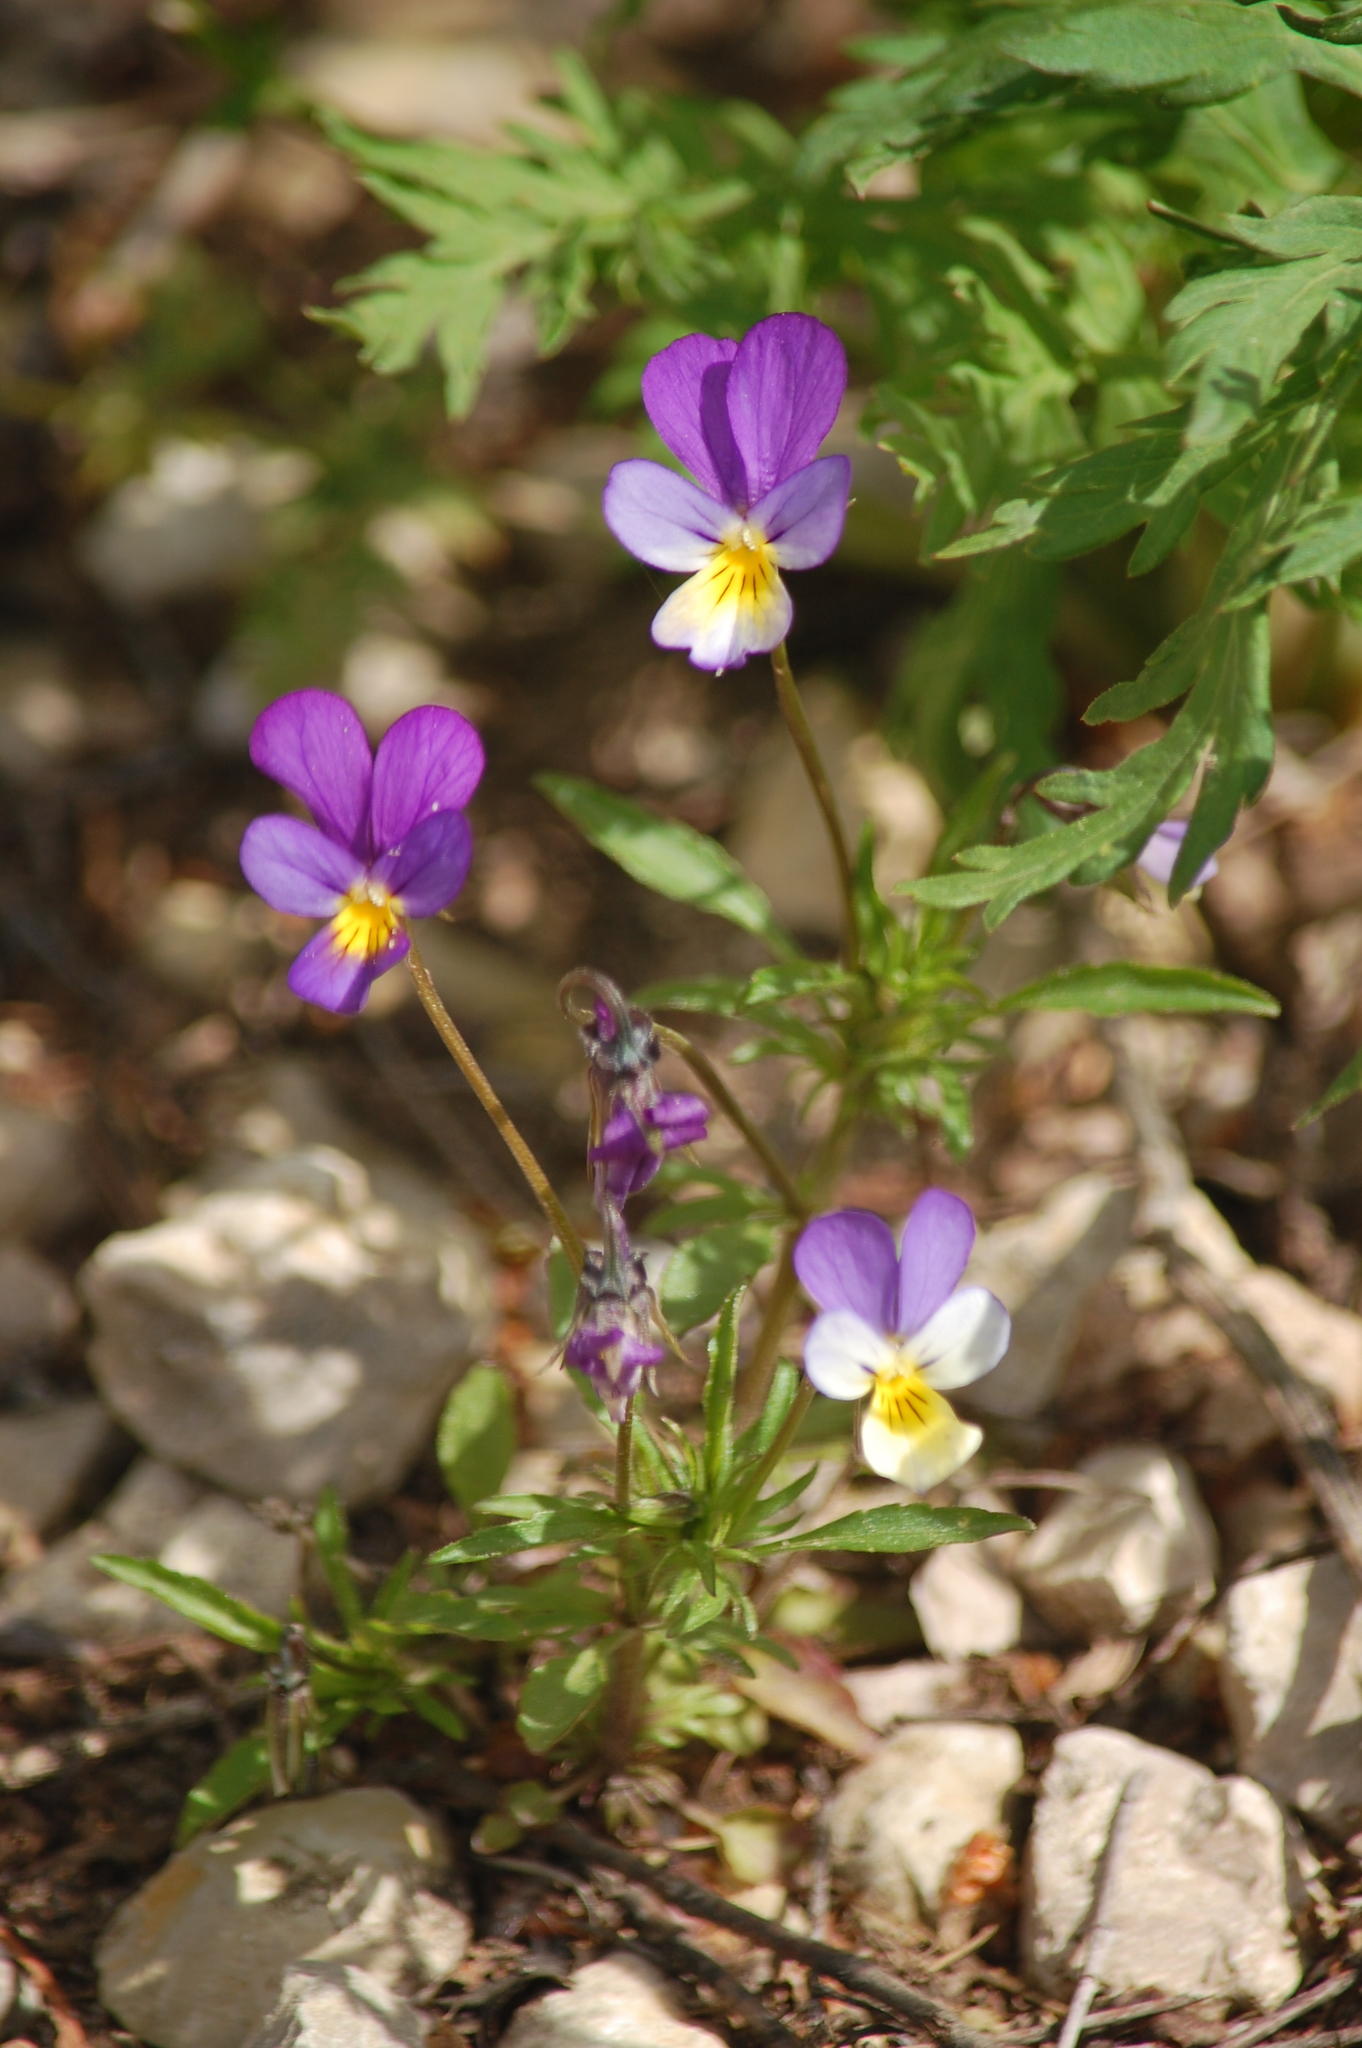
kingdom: Plantae
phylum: Tracheophyta
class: Magnoliopsida
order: Malpighiales
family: Violaceae
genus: Viola
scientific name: Viola tricolor
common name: Pansy
